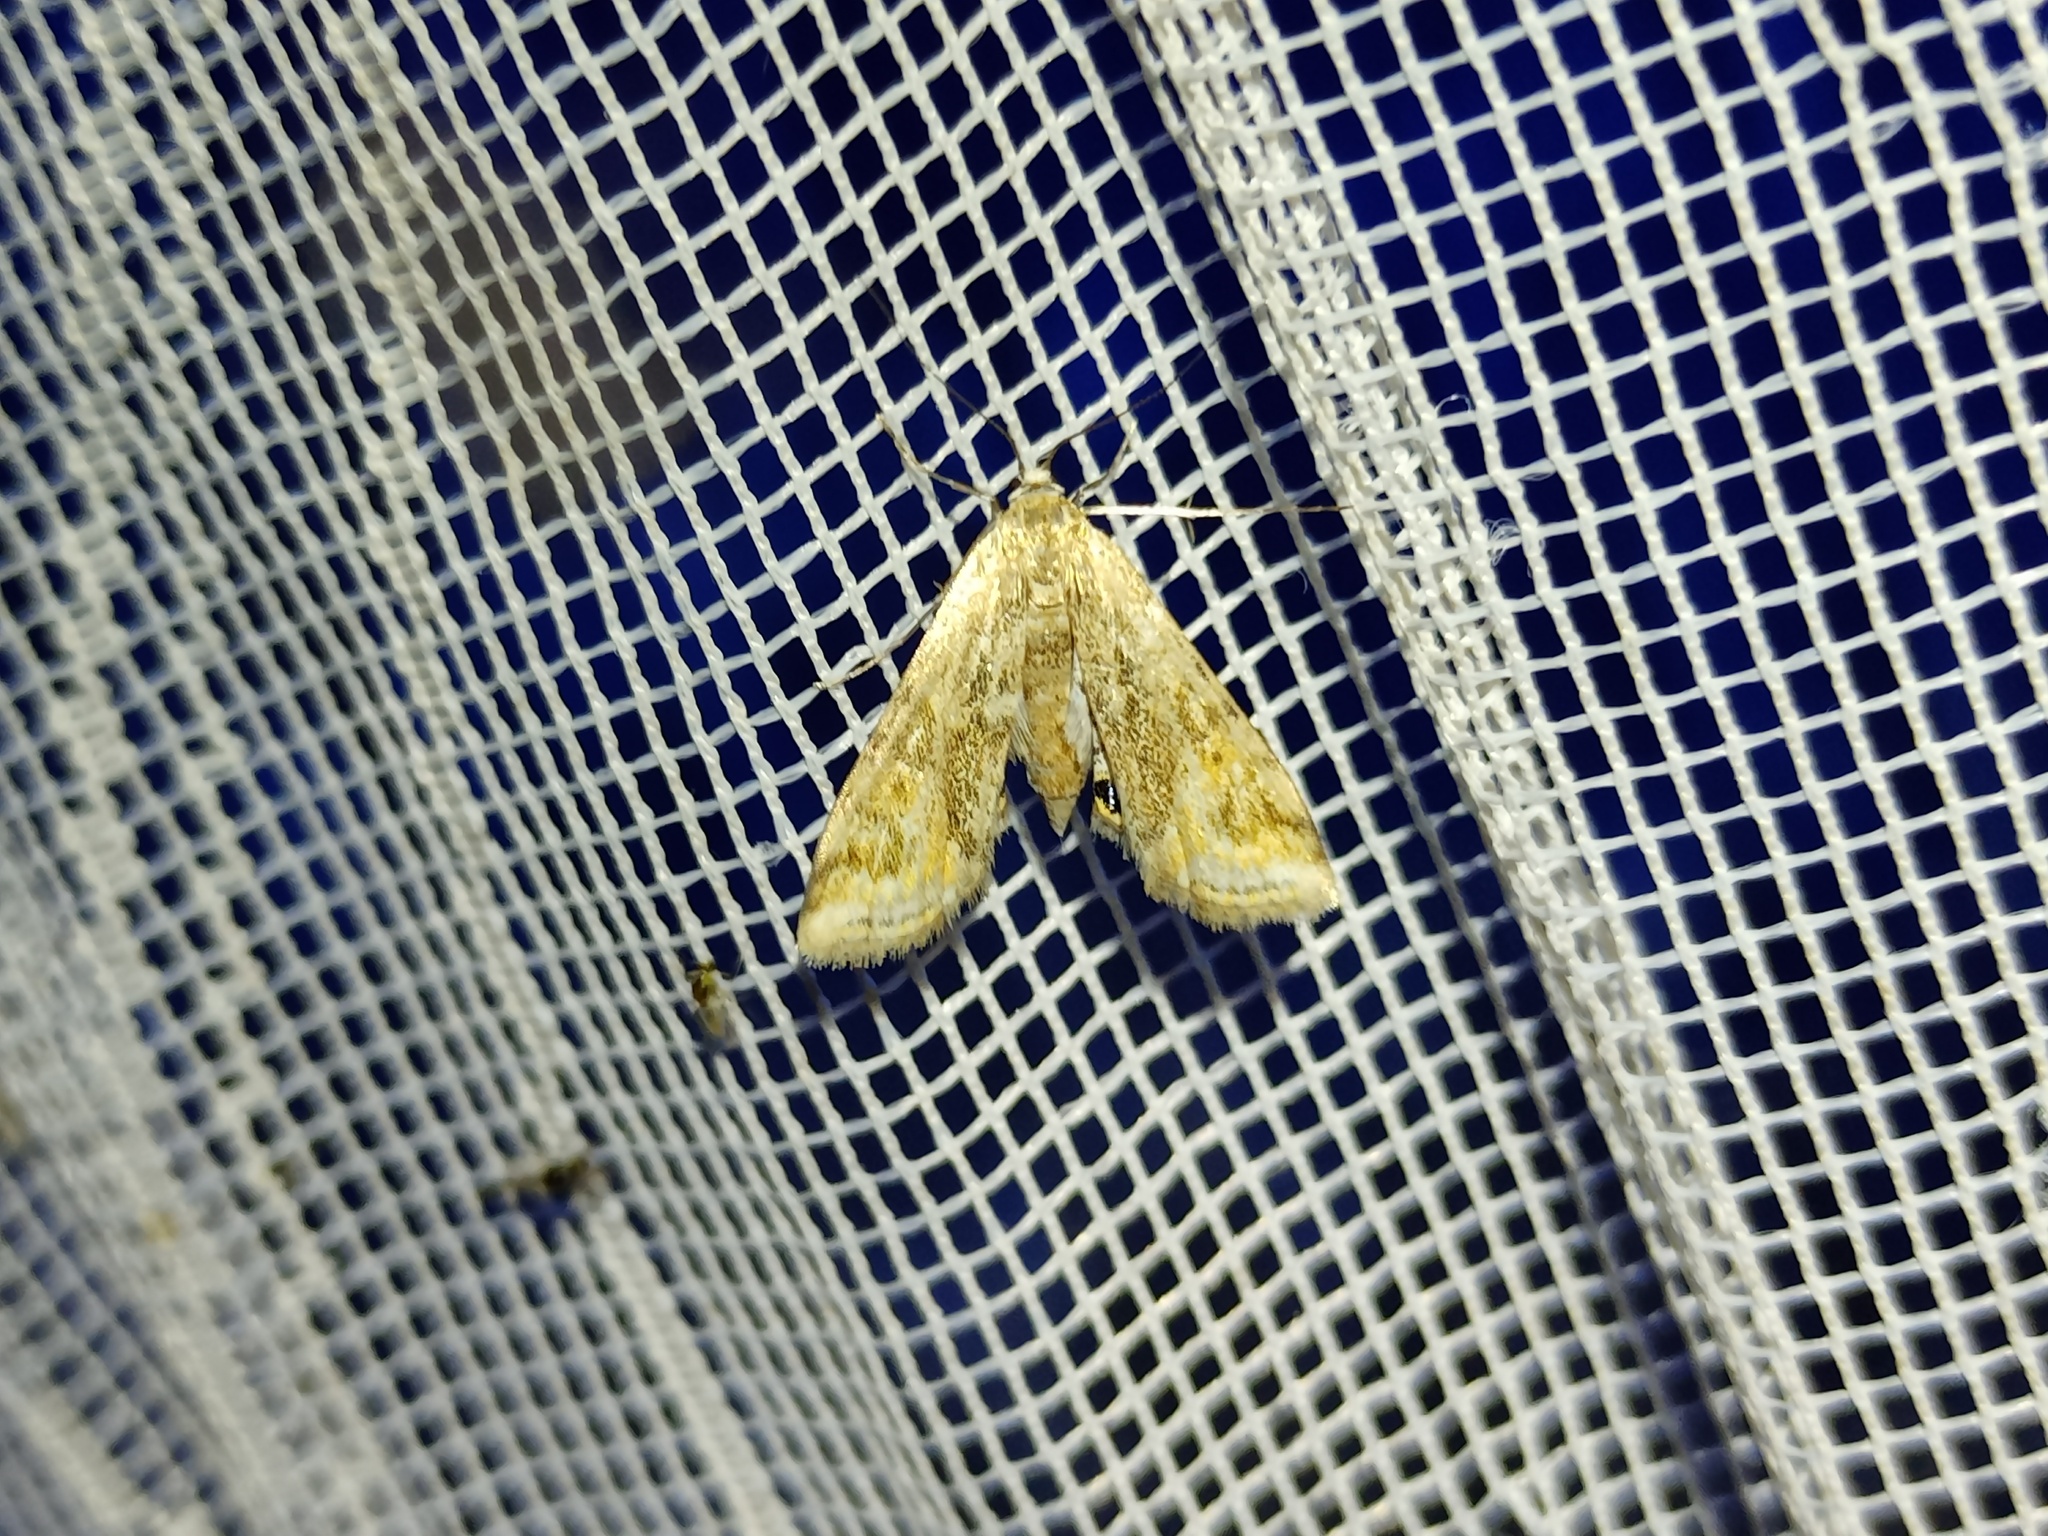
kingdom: Animalia
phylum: Arthropoda
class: Insecta
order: Lepidoptera
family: Crambidae
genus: Cataclysta
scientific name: Cataclysta lemnata
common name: Small china-mark
